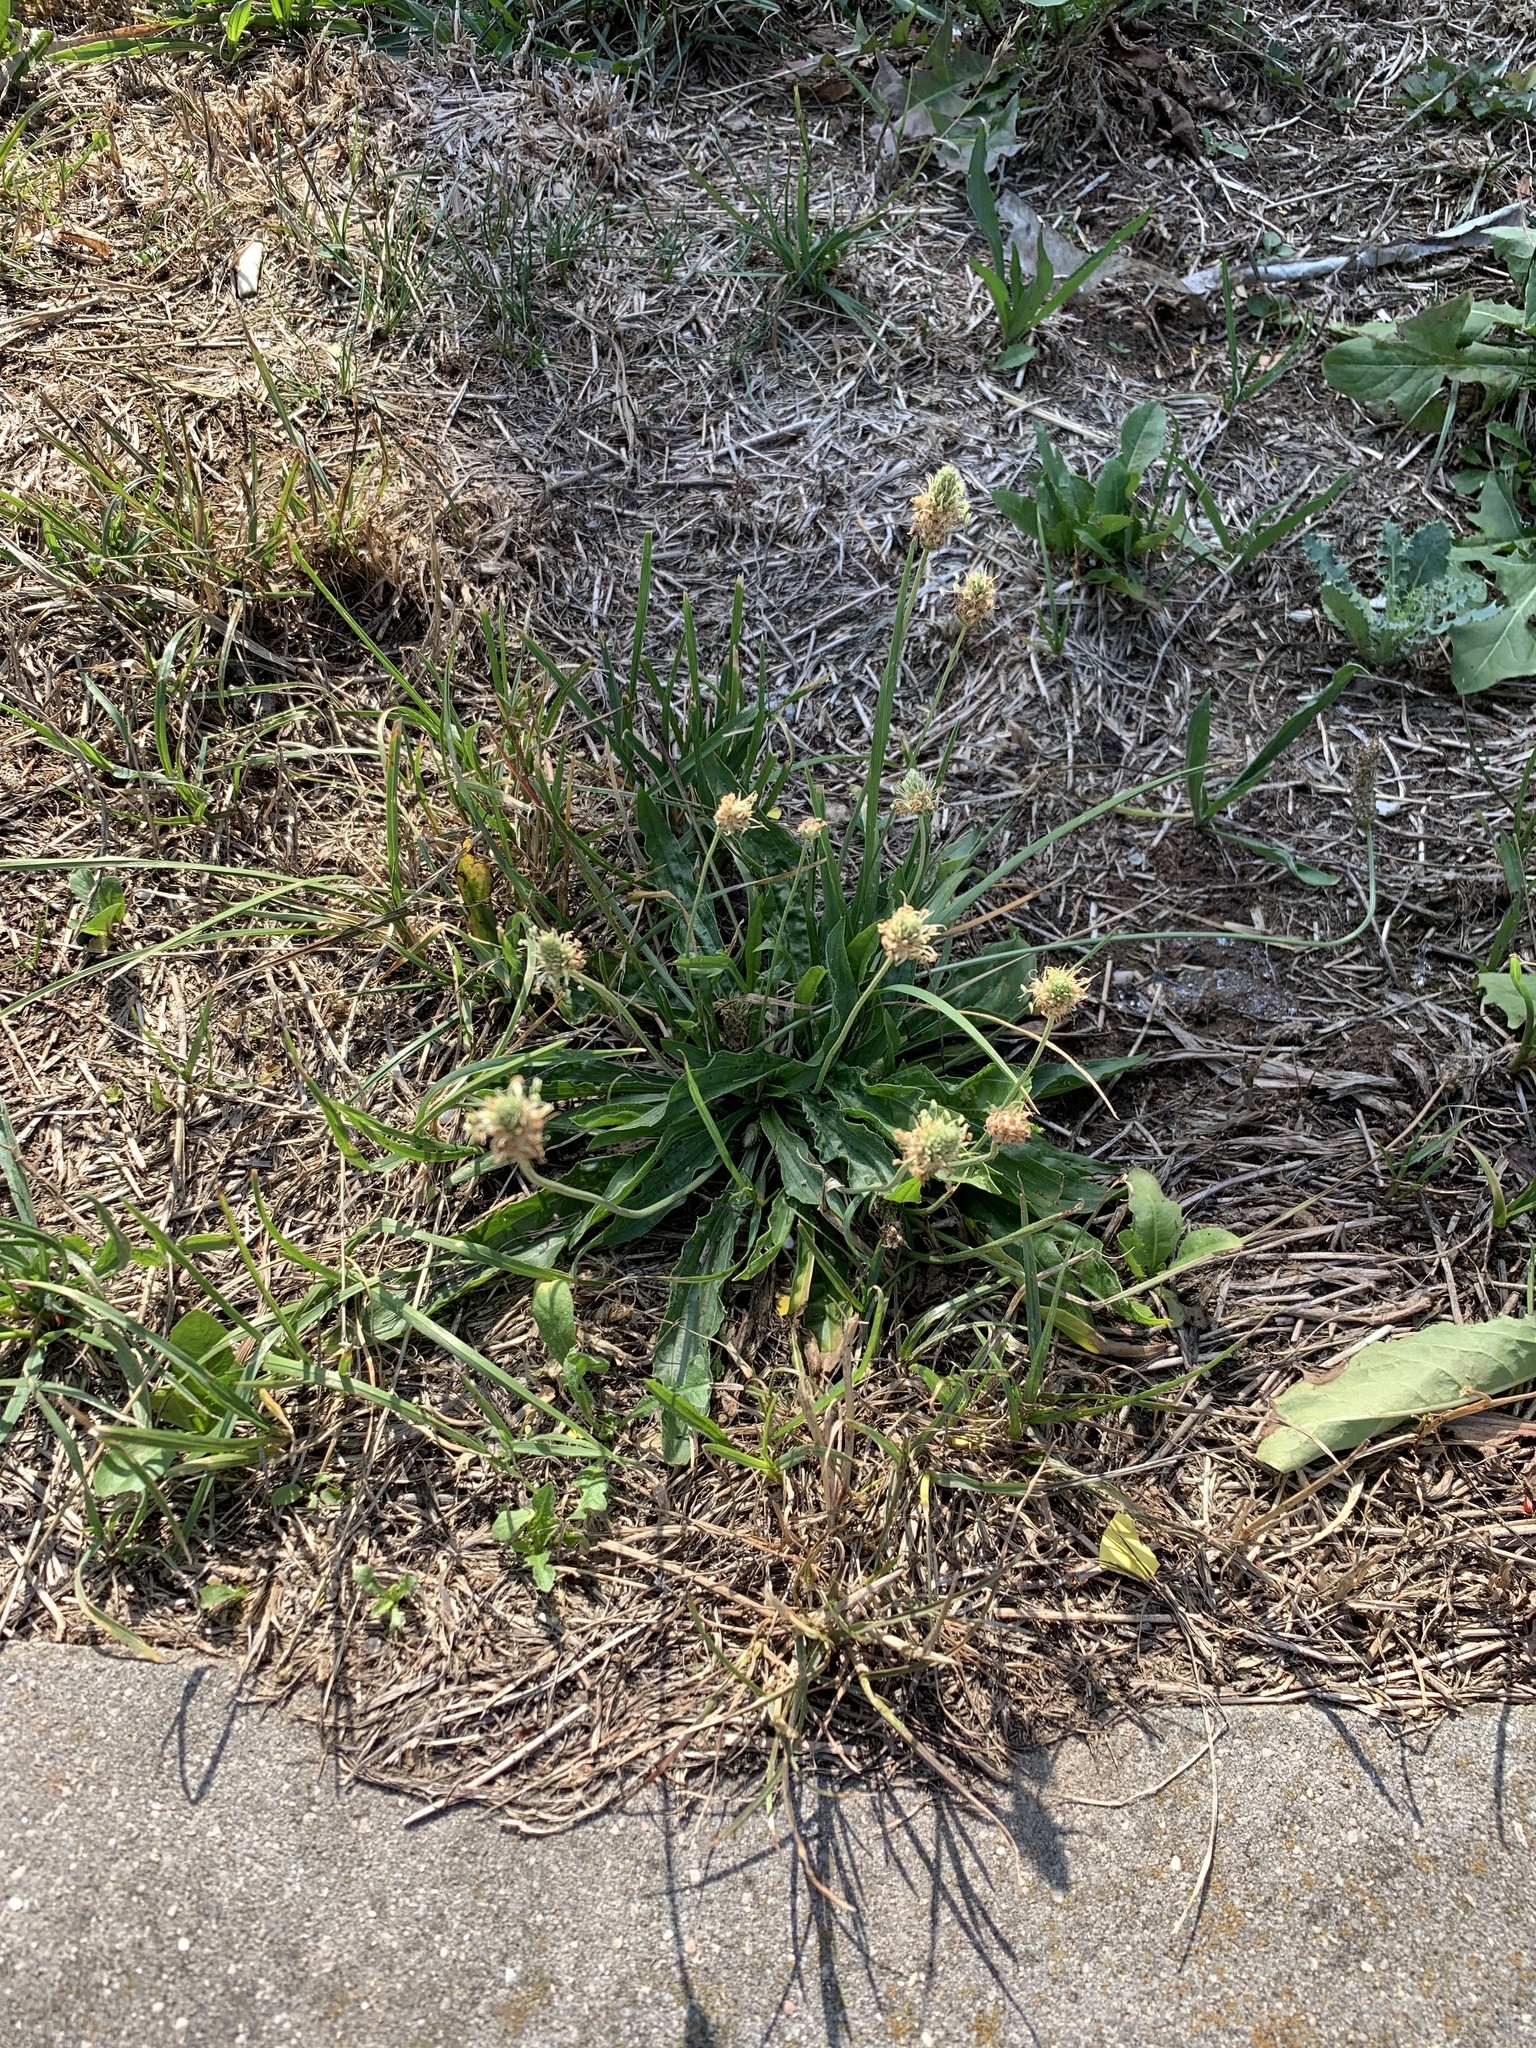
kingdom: Plantae
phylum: Tracheophyta
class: Magnoliopsida
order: Lamiales
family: Plantaginaceae
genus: Plantago
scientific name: Plantago lanceolata
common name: Ribwort plantain
